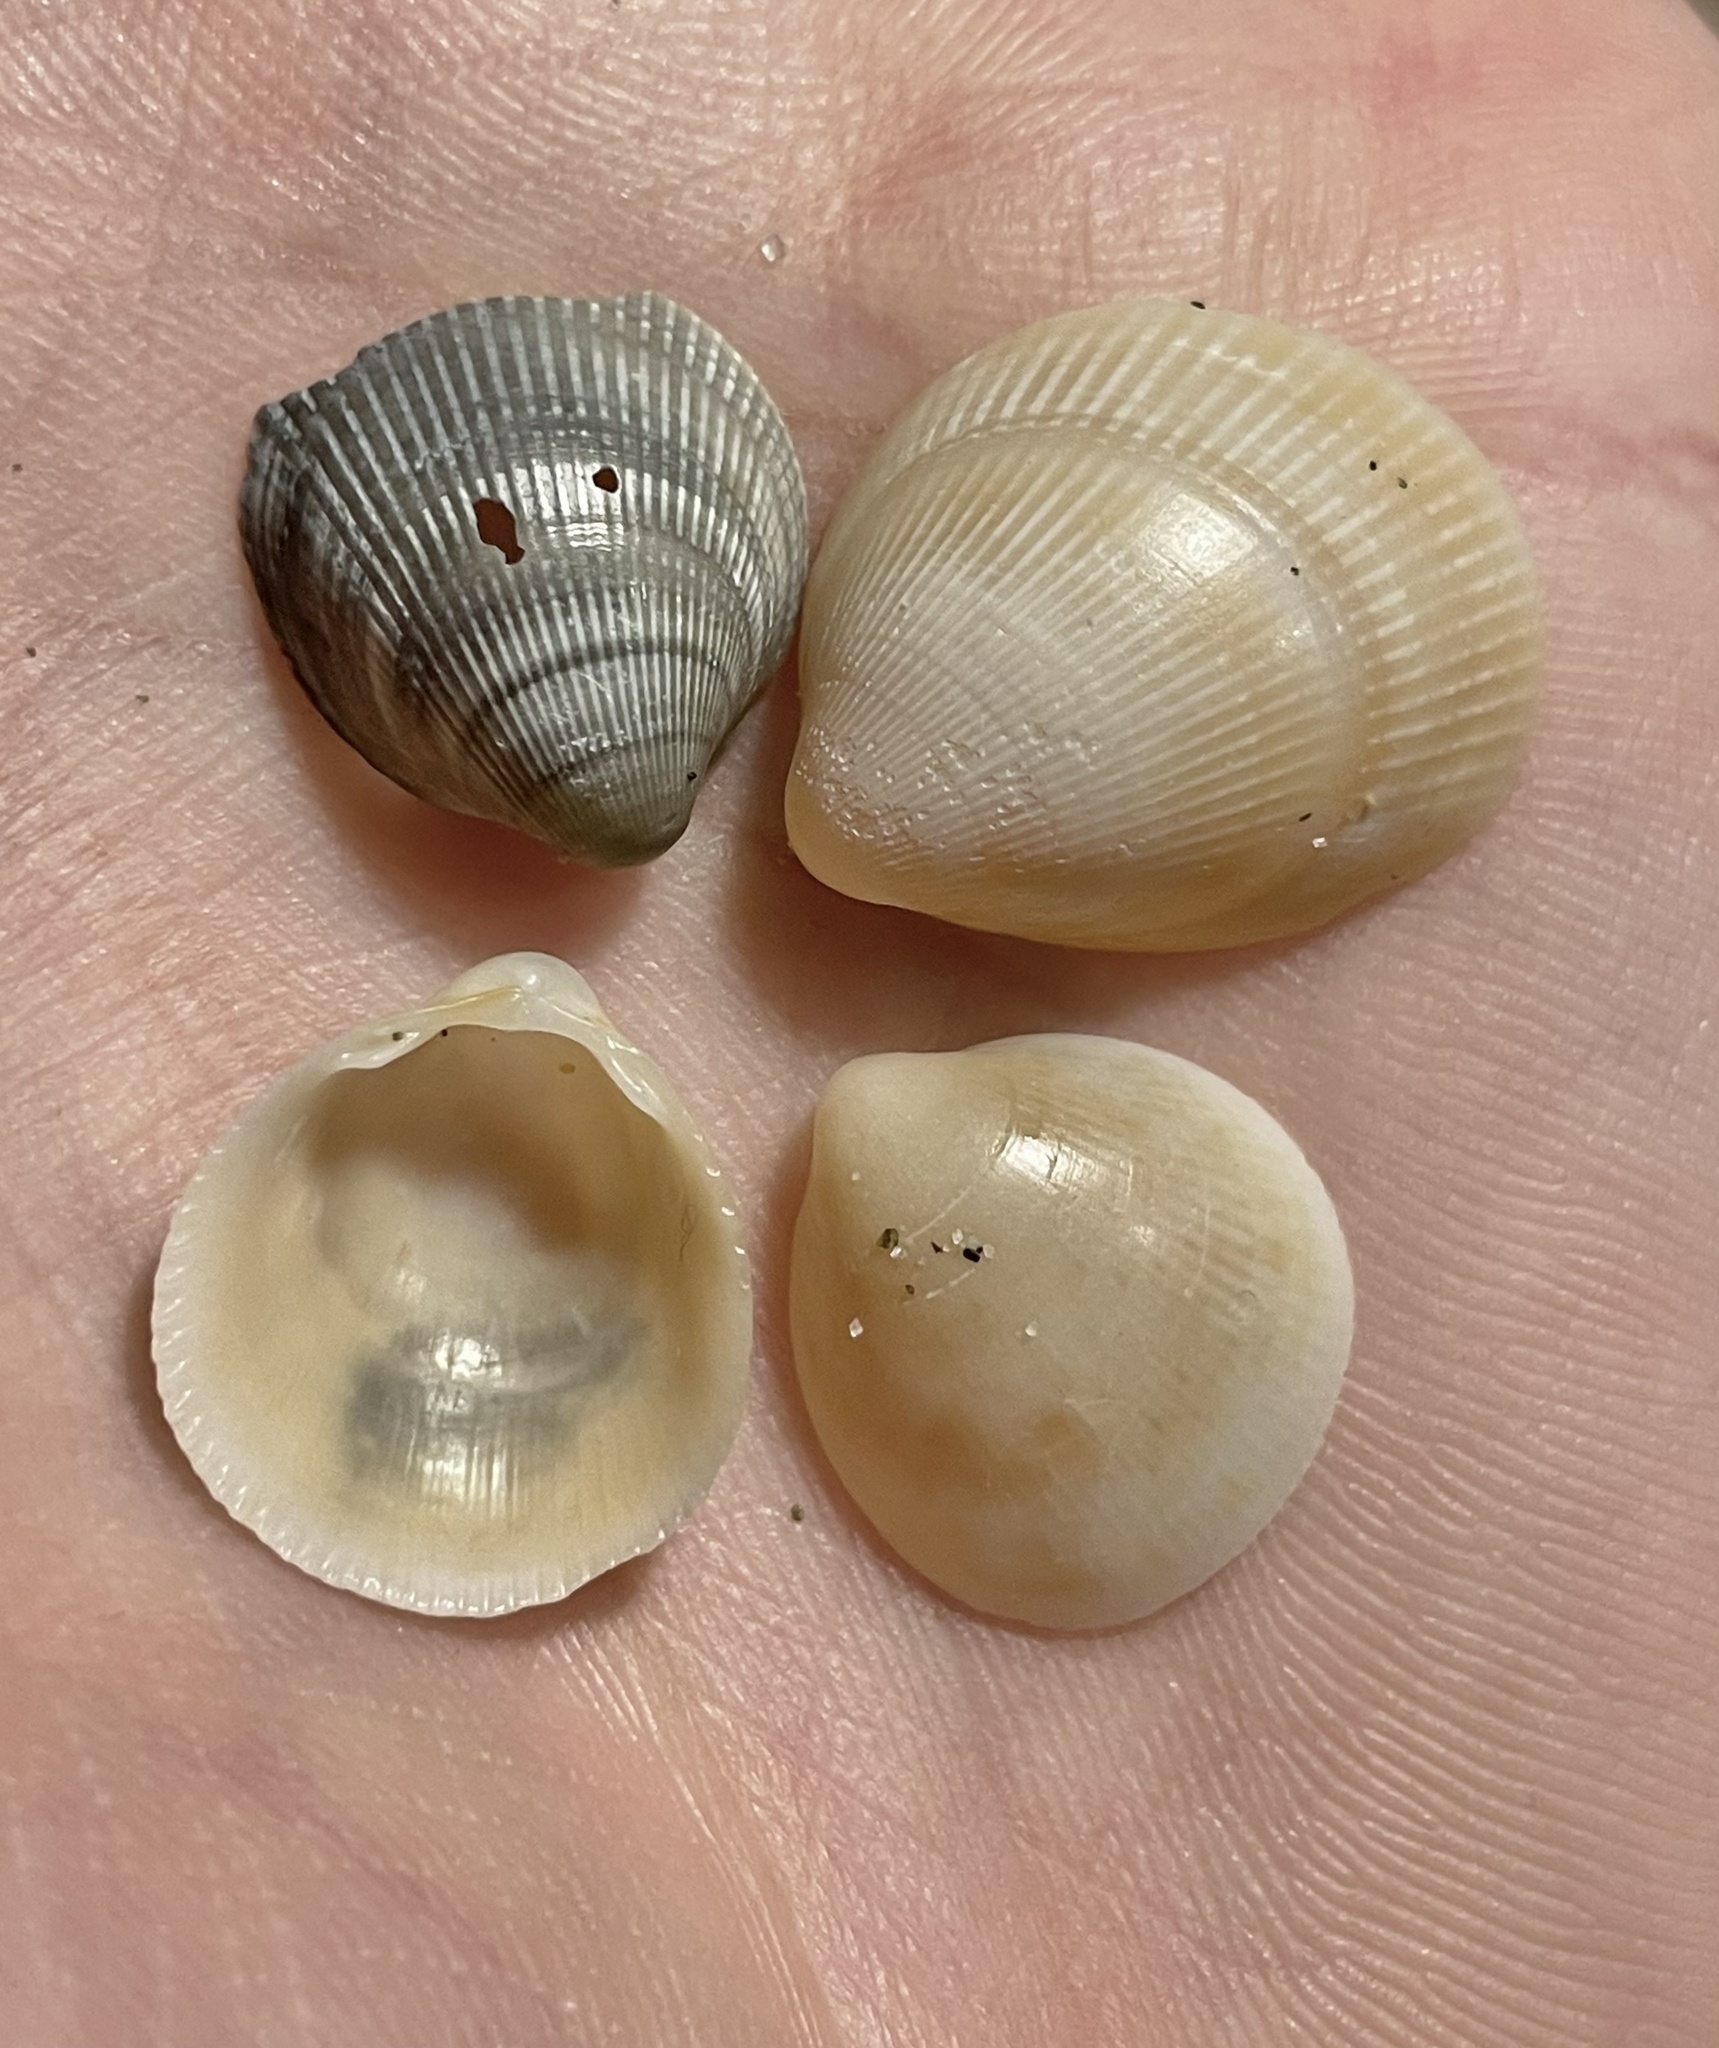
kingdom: Animalia
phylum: Mollusca
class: Bivalvia
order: Cardiida
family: Cardiidae
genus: Laevicardium
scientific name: Laevicardium crassum
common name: Norway cockle
